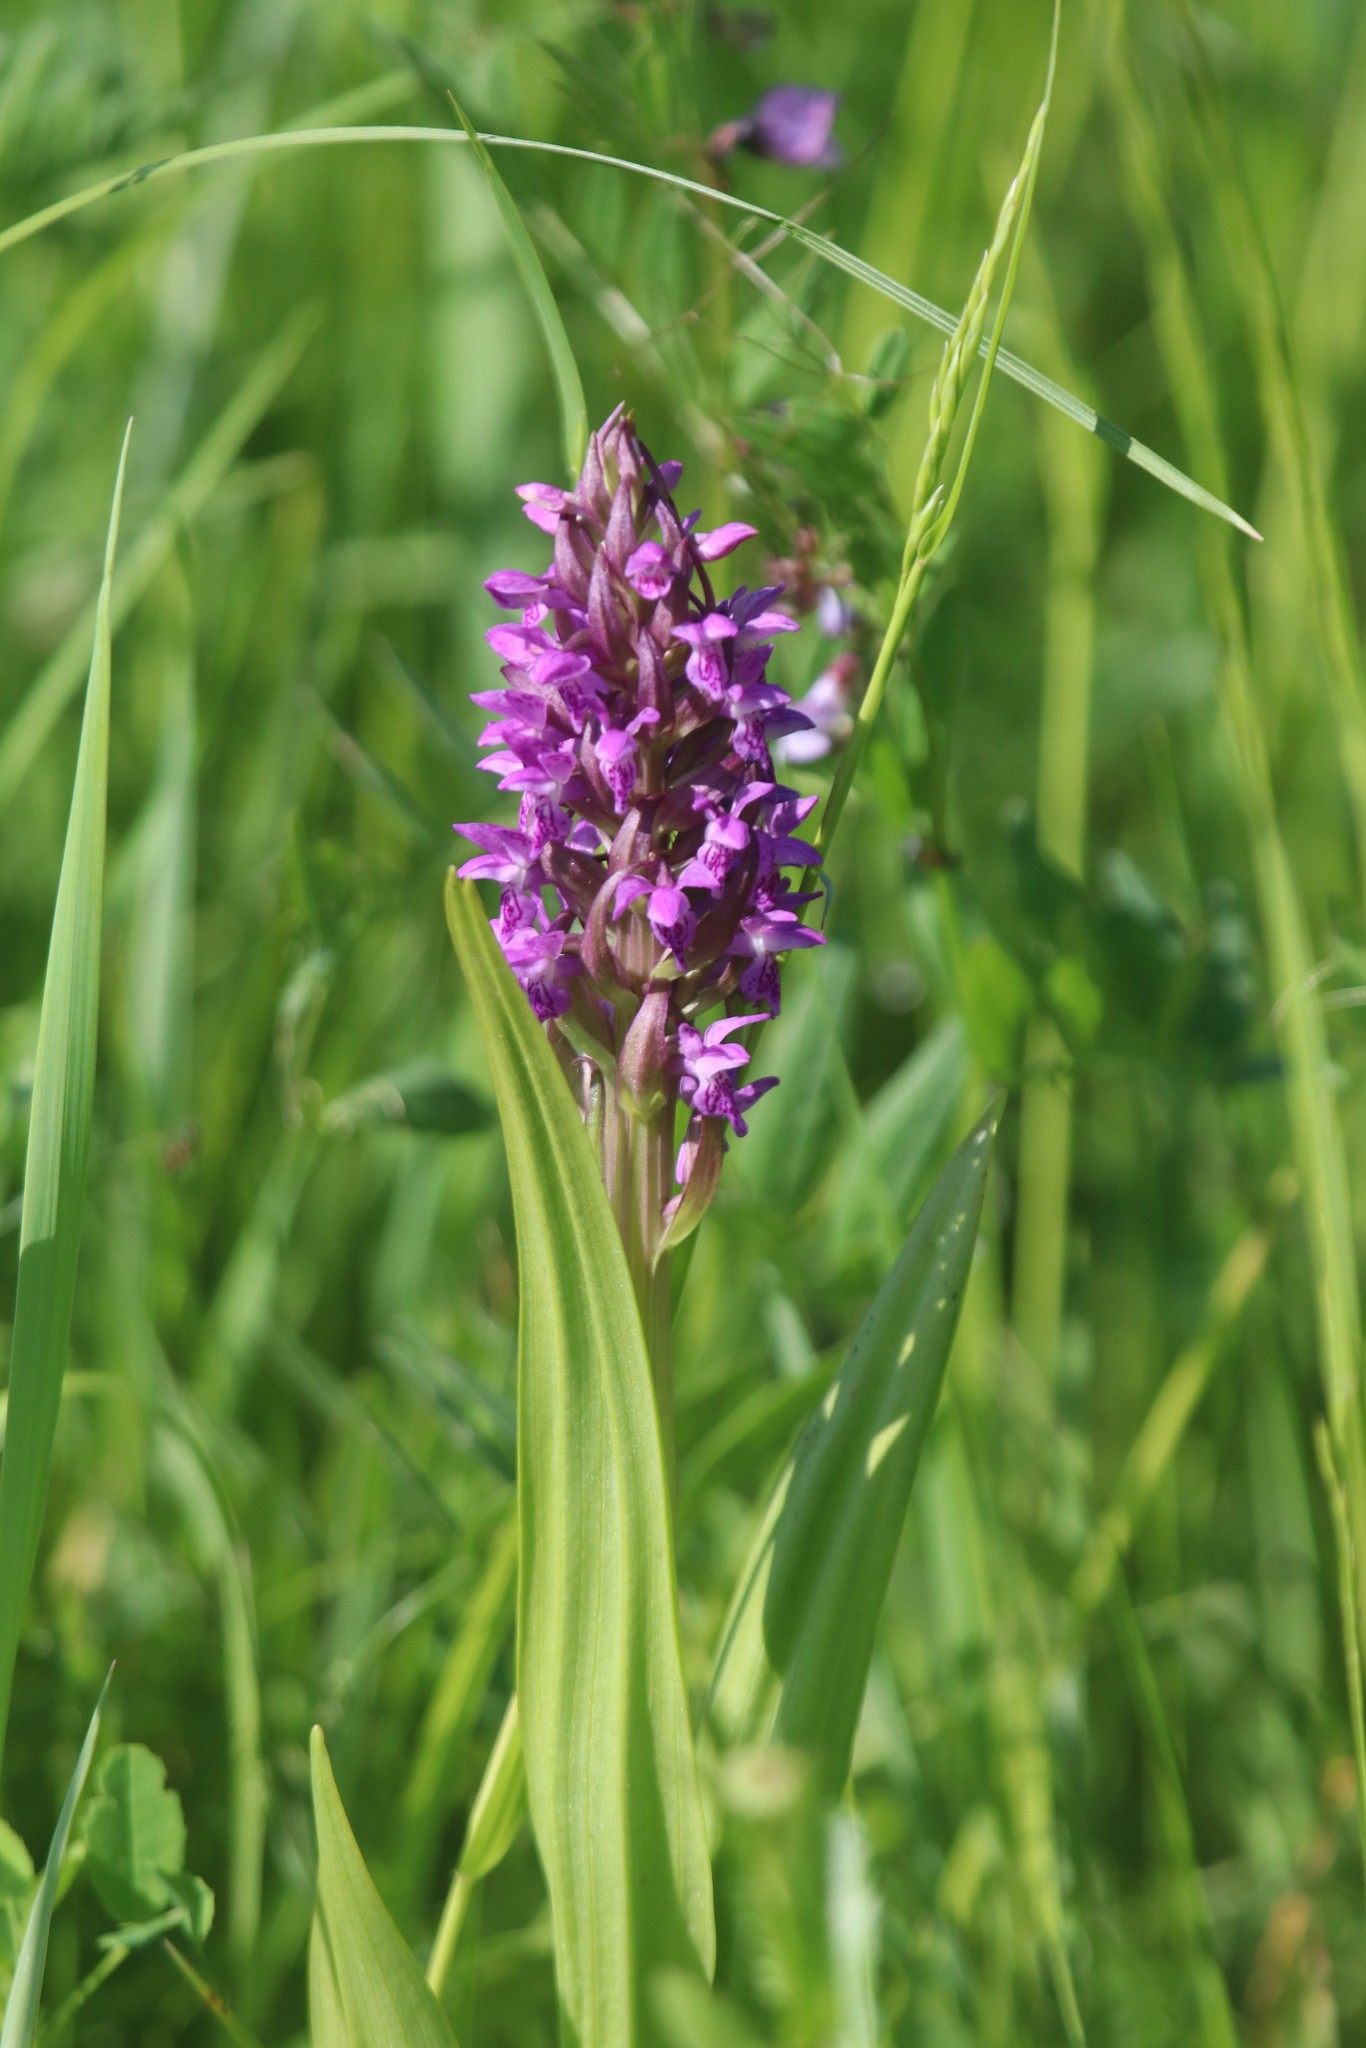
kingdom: Plantae
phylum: Tracheophyta
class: Liliopsida
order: Asparagales
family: Orchidaceae
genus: Dactylorhiza
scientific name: Dactylorhiza incarnata
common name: Early marsh-orchid
